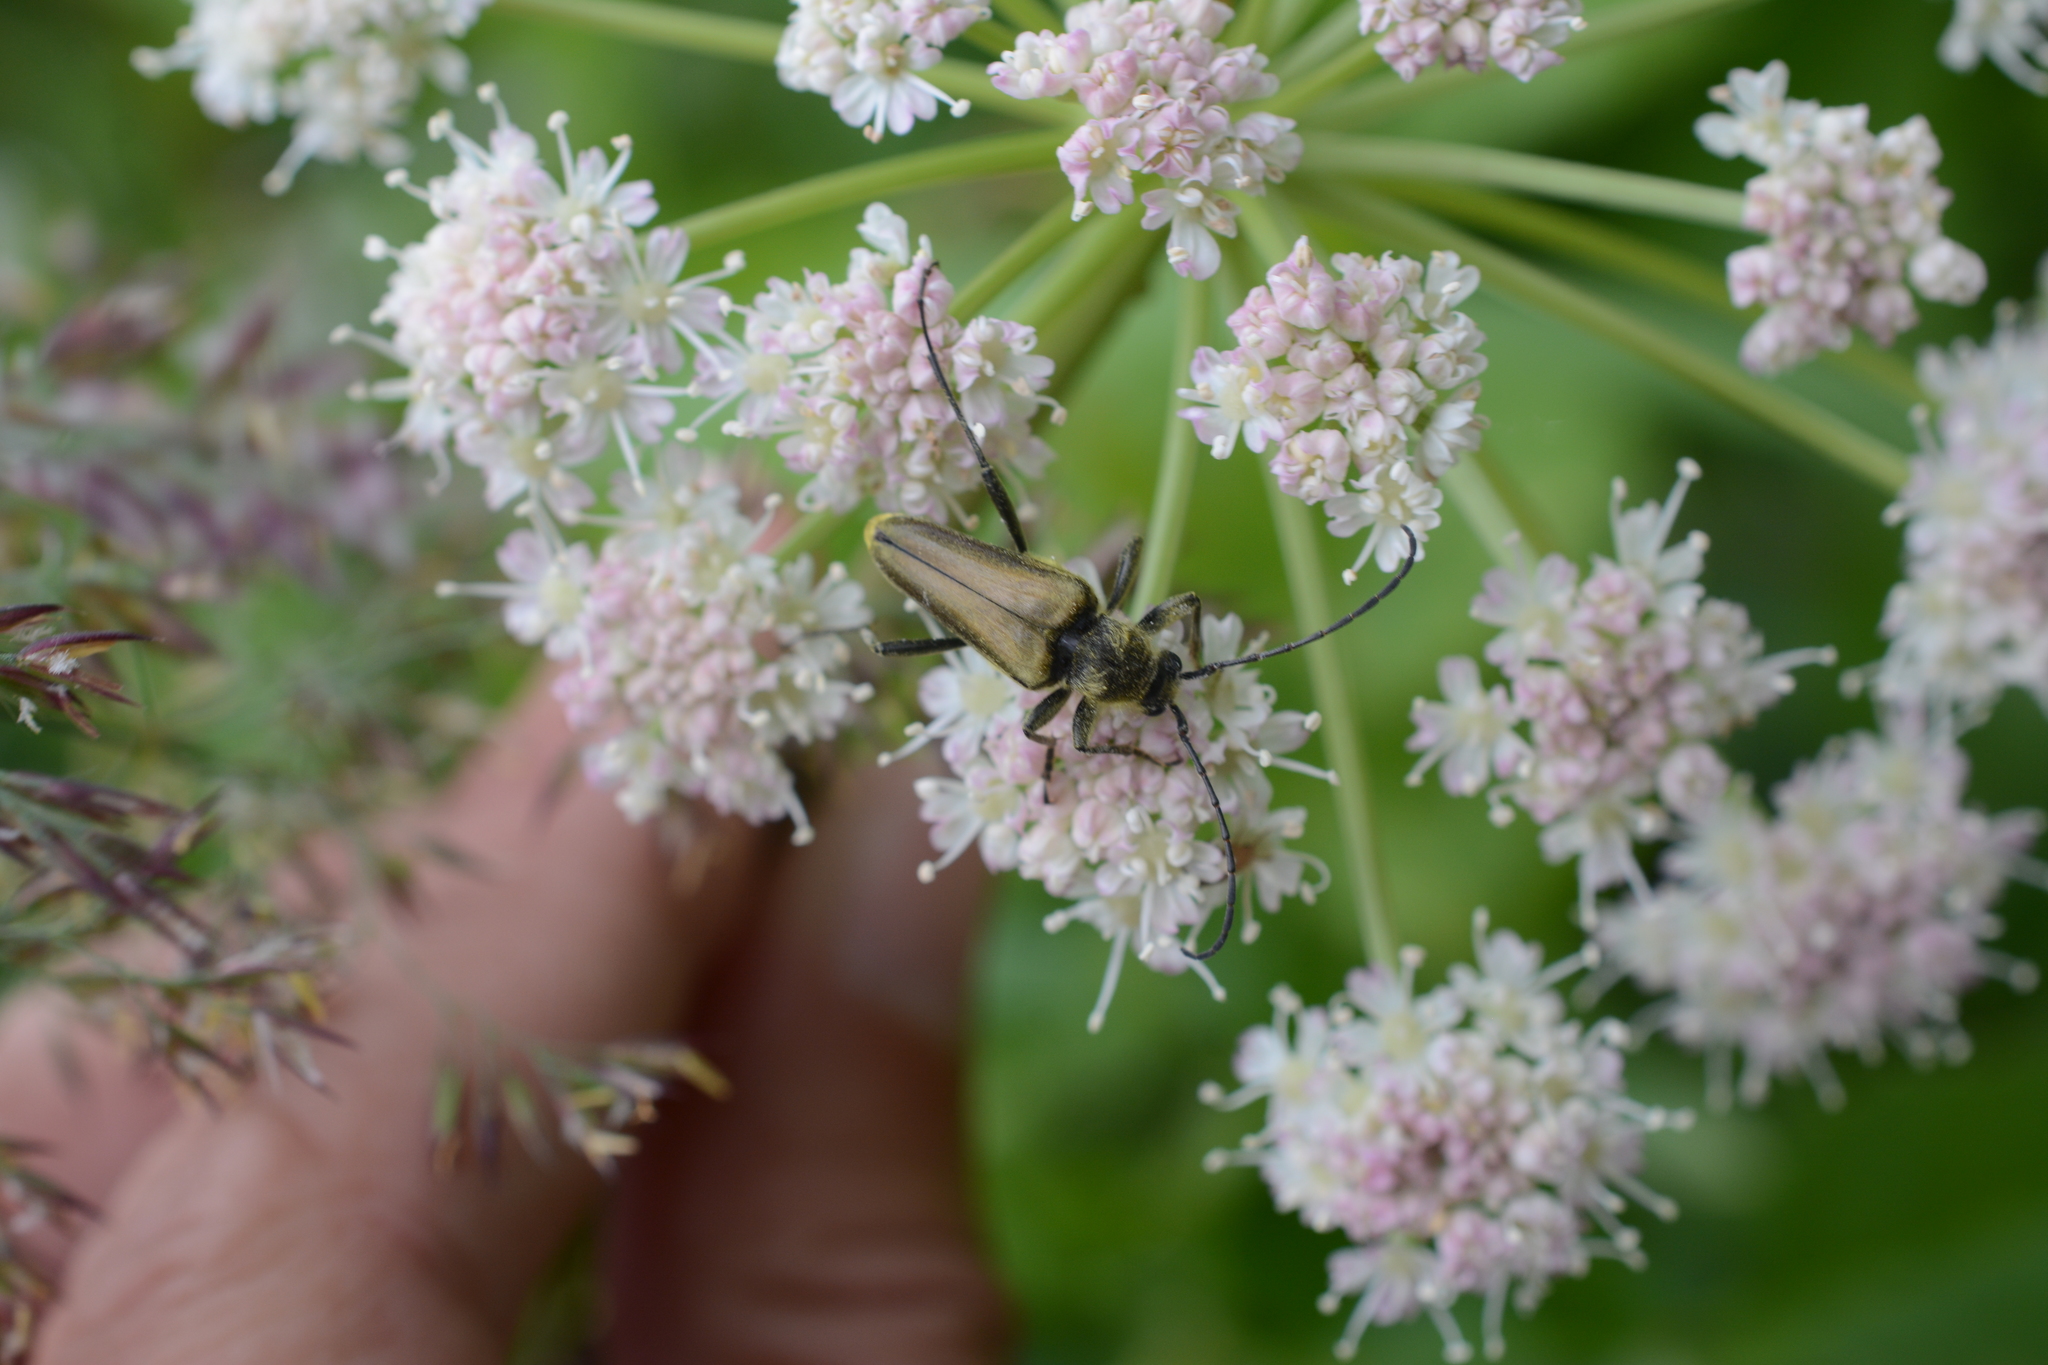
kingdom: Animalia
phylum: Arthropoda
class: Insecta
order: Coleoptera
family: Cerambycidae
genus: Cosmosalia
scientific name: Cosmosalia chrysocoma
